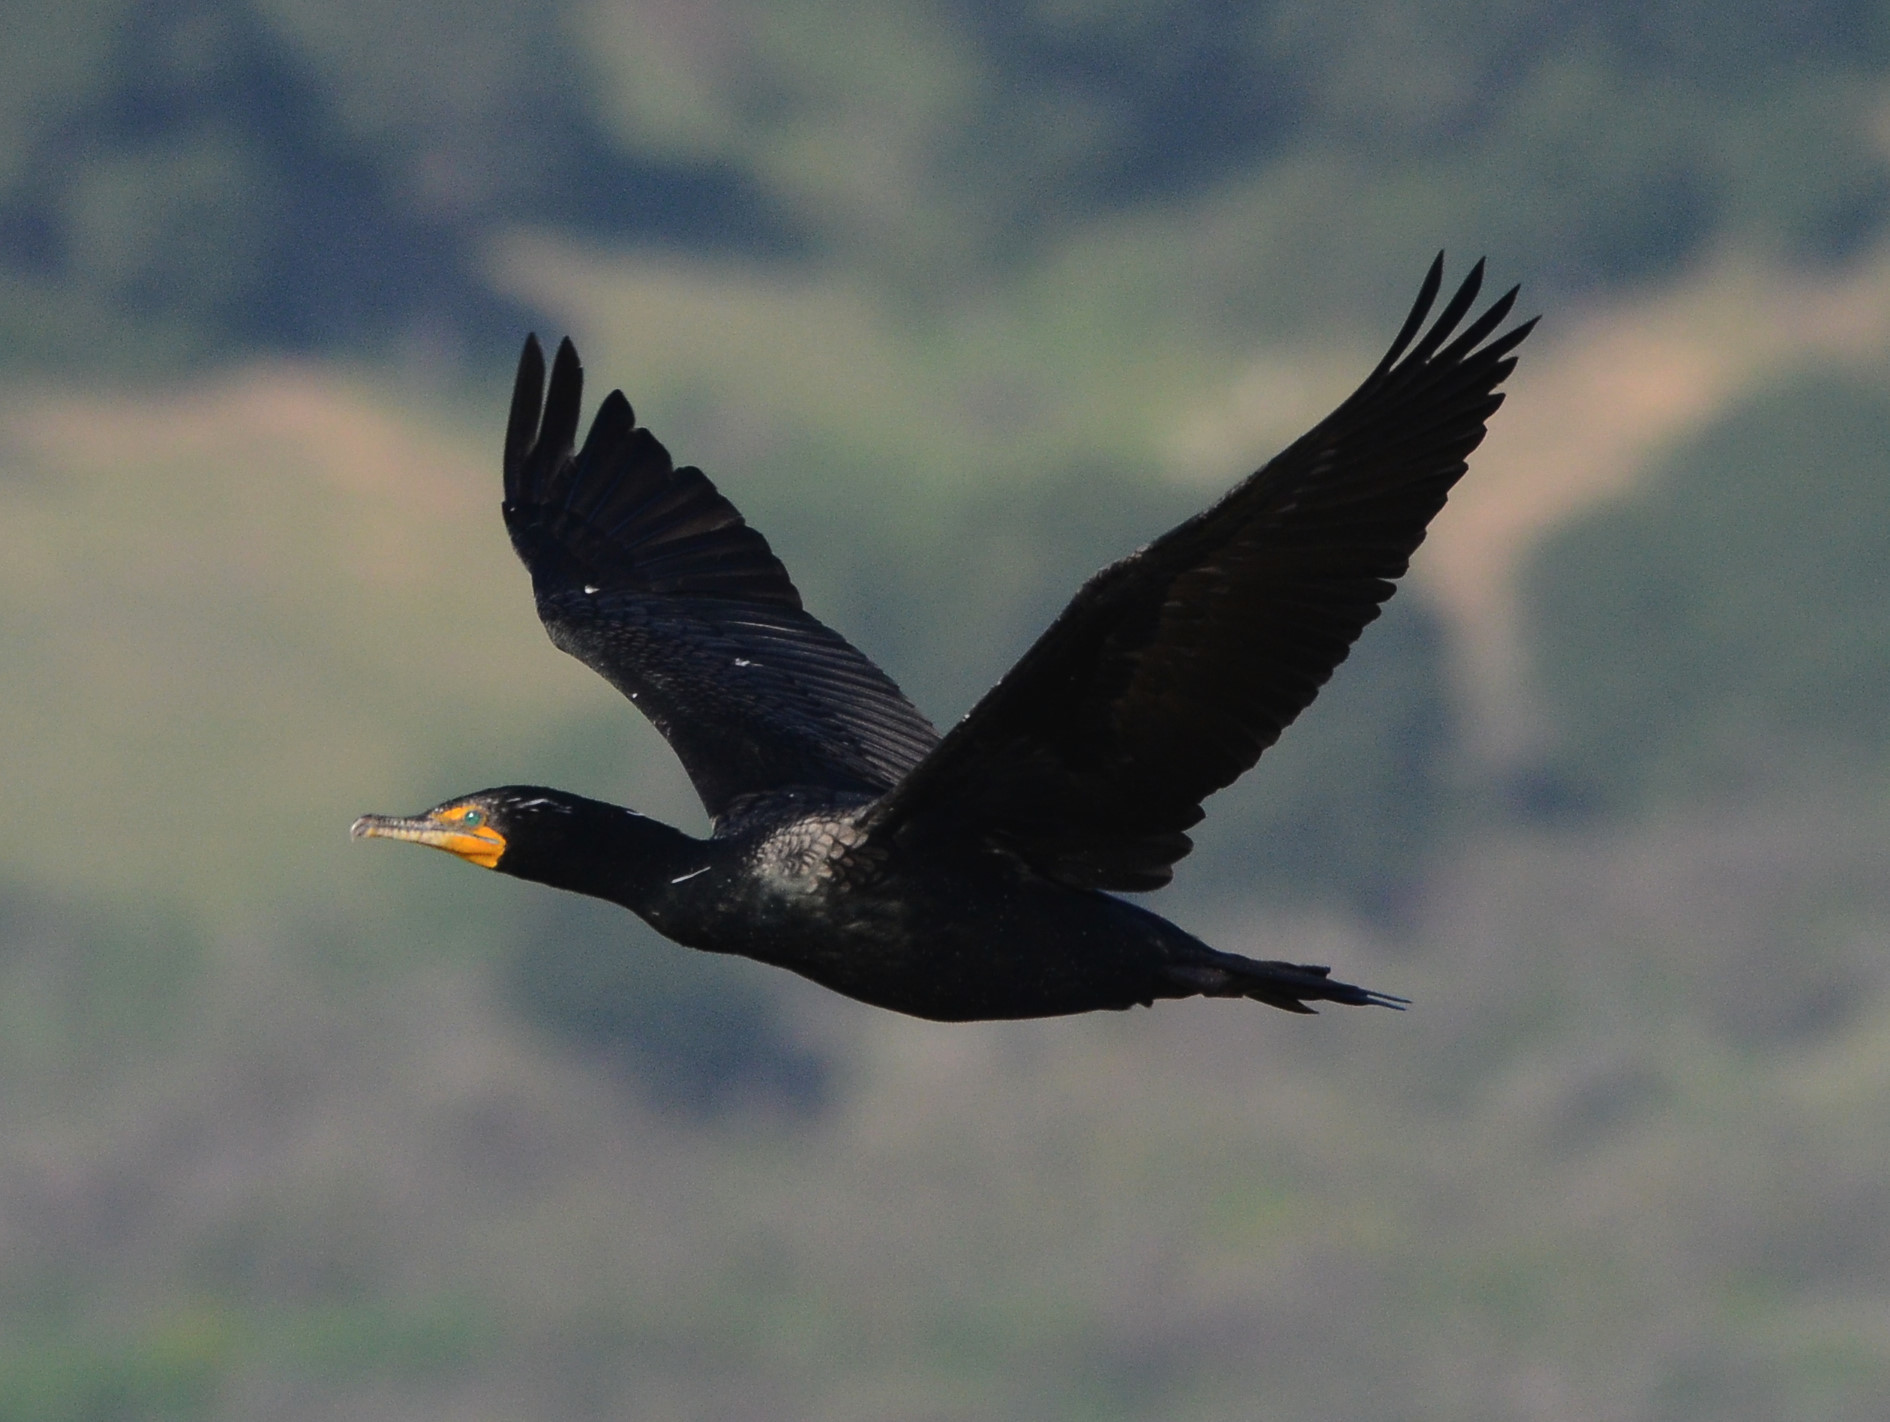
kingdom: Animalia
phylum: Chordata
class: Aves
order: Suliformes
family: Phalacrocoracidae
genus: Phalacrocorax
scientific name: Phalacrocorax auritus
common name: Double-crested cormorant
